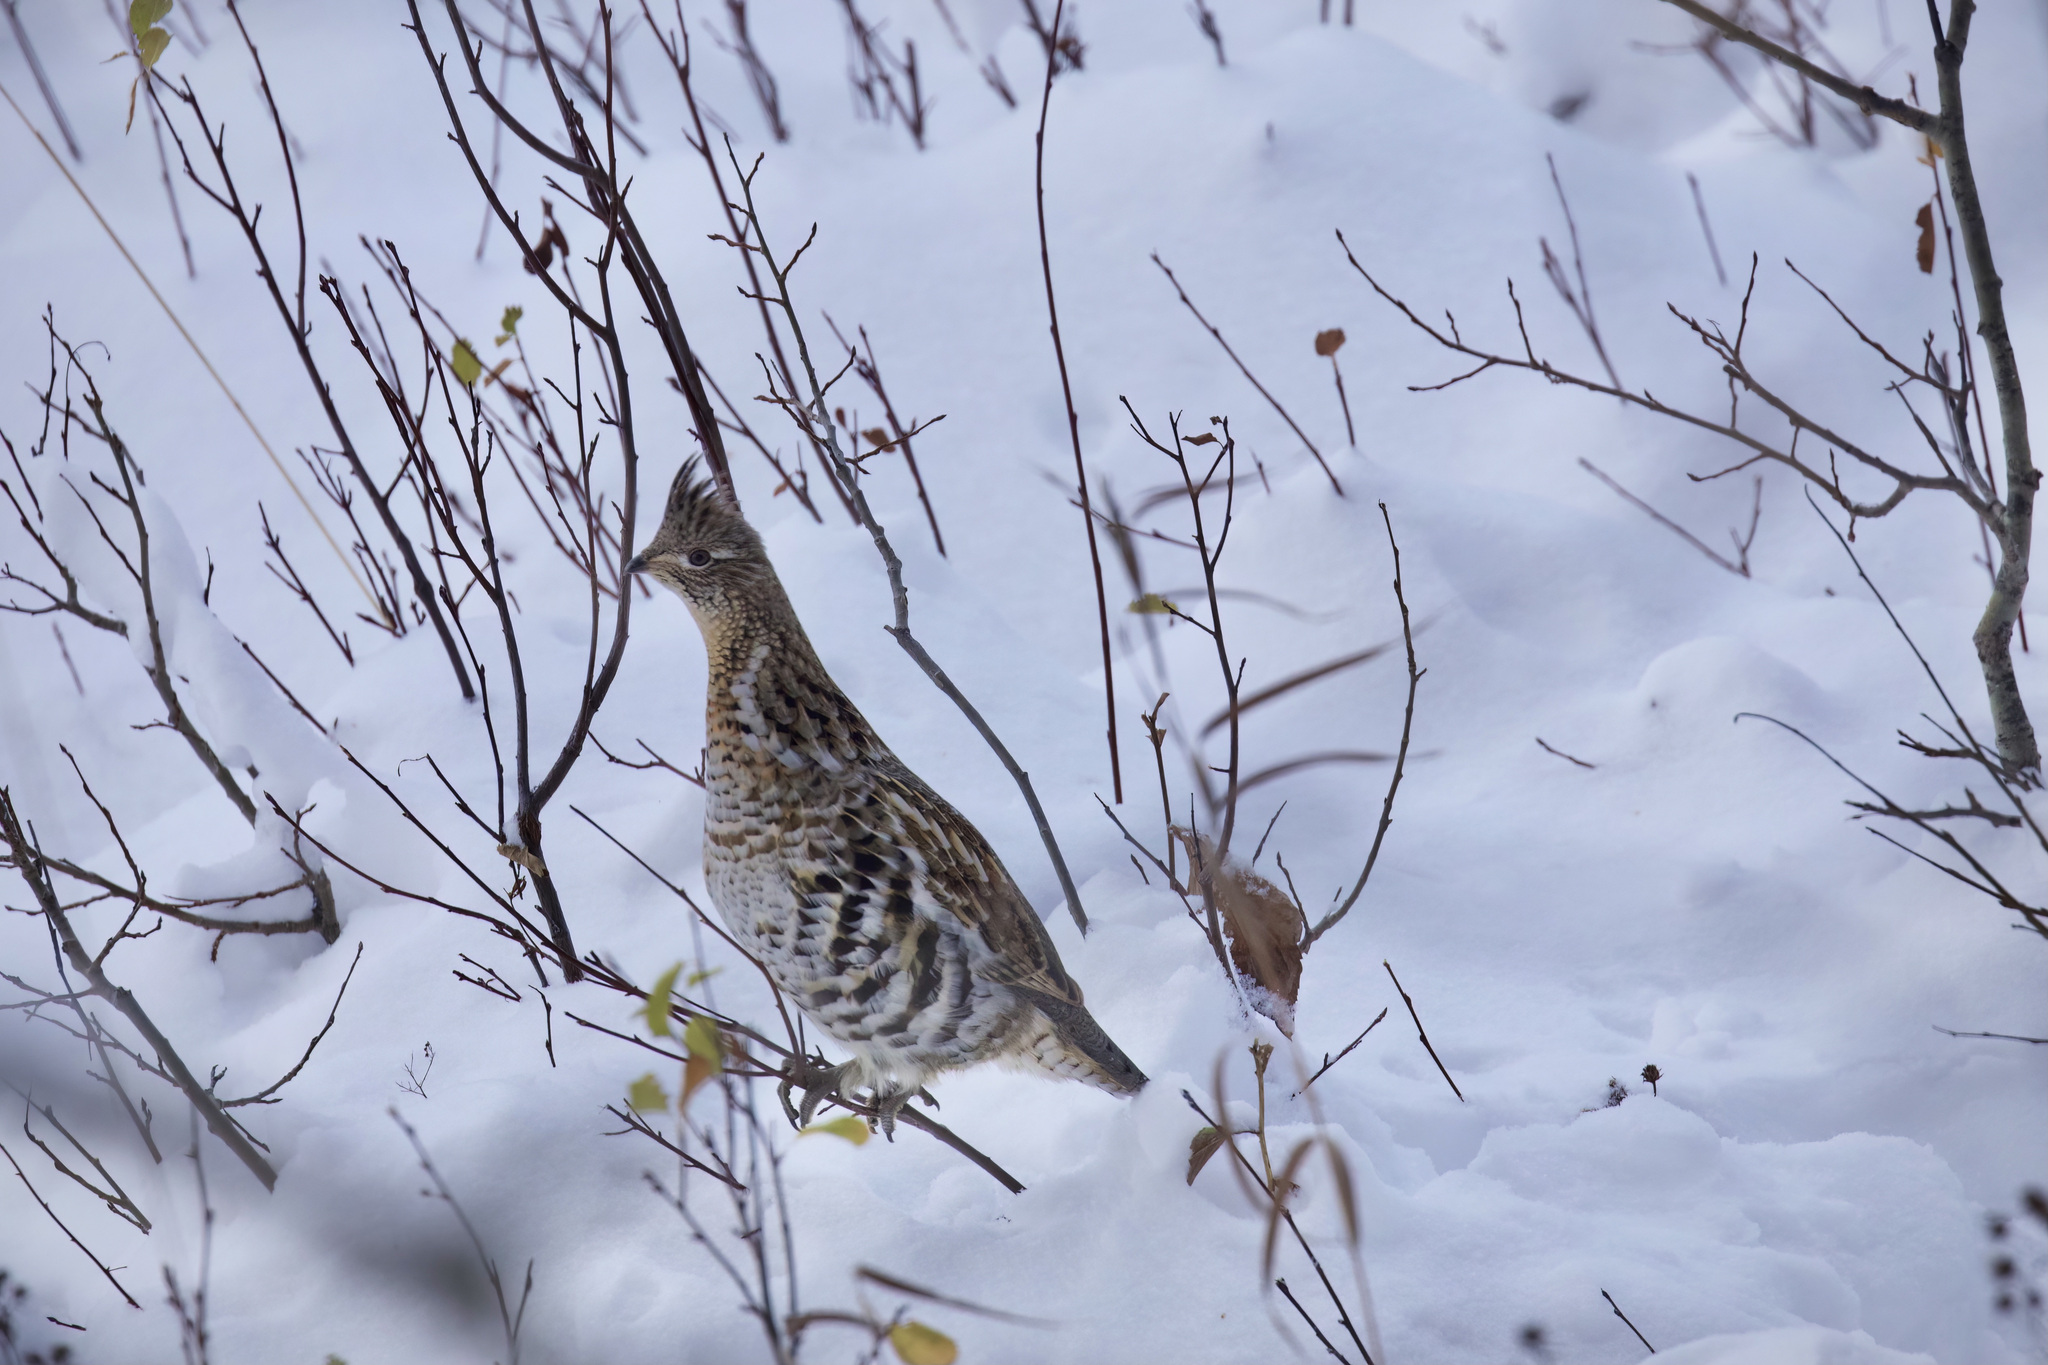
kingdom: Animalia
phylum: Chordata
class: Aves
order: Galliformes
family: Phasianidae
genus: Bonasa
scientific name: Bonasa umbellus
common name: Ruffed grouse
